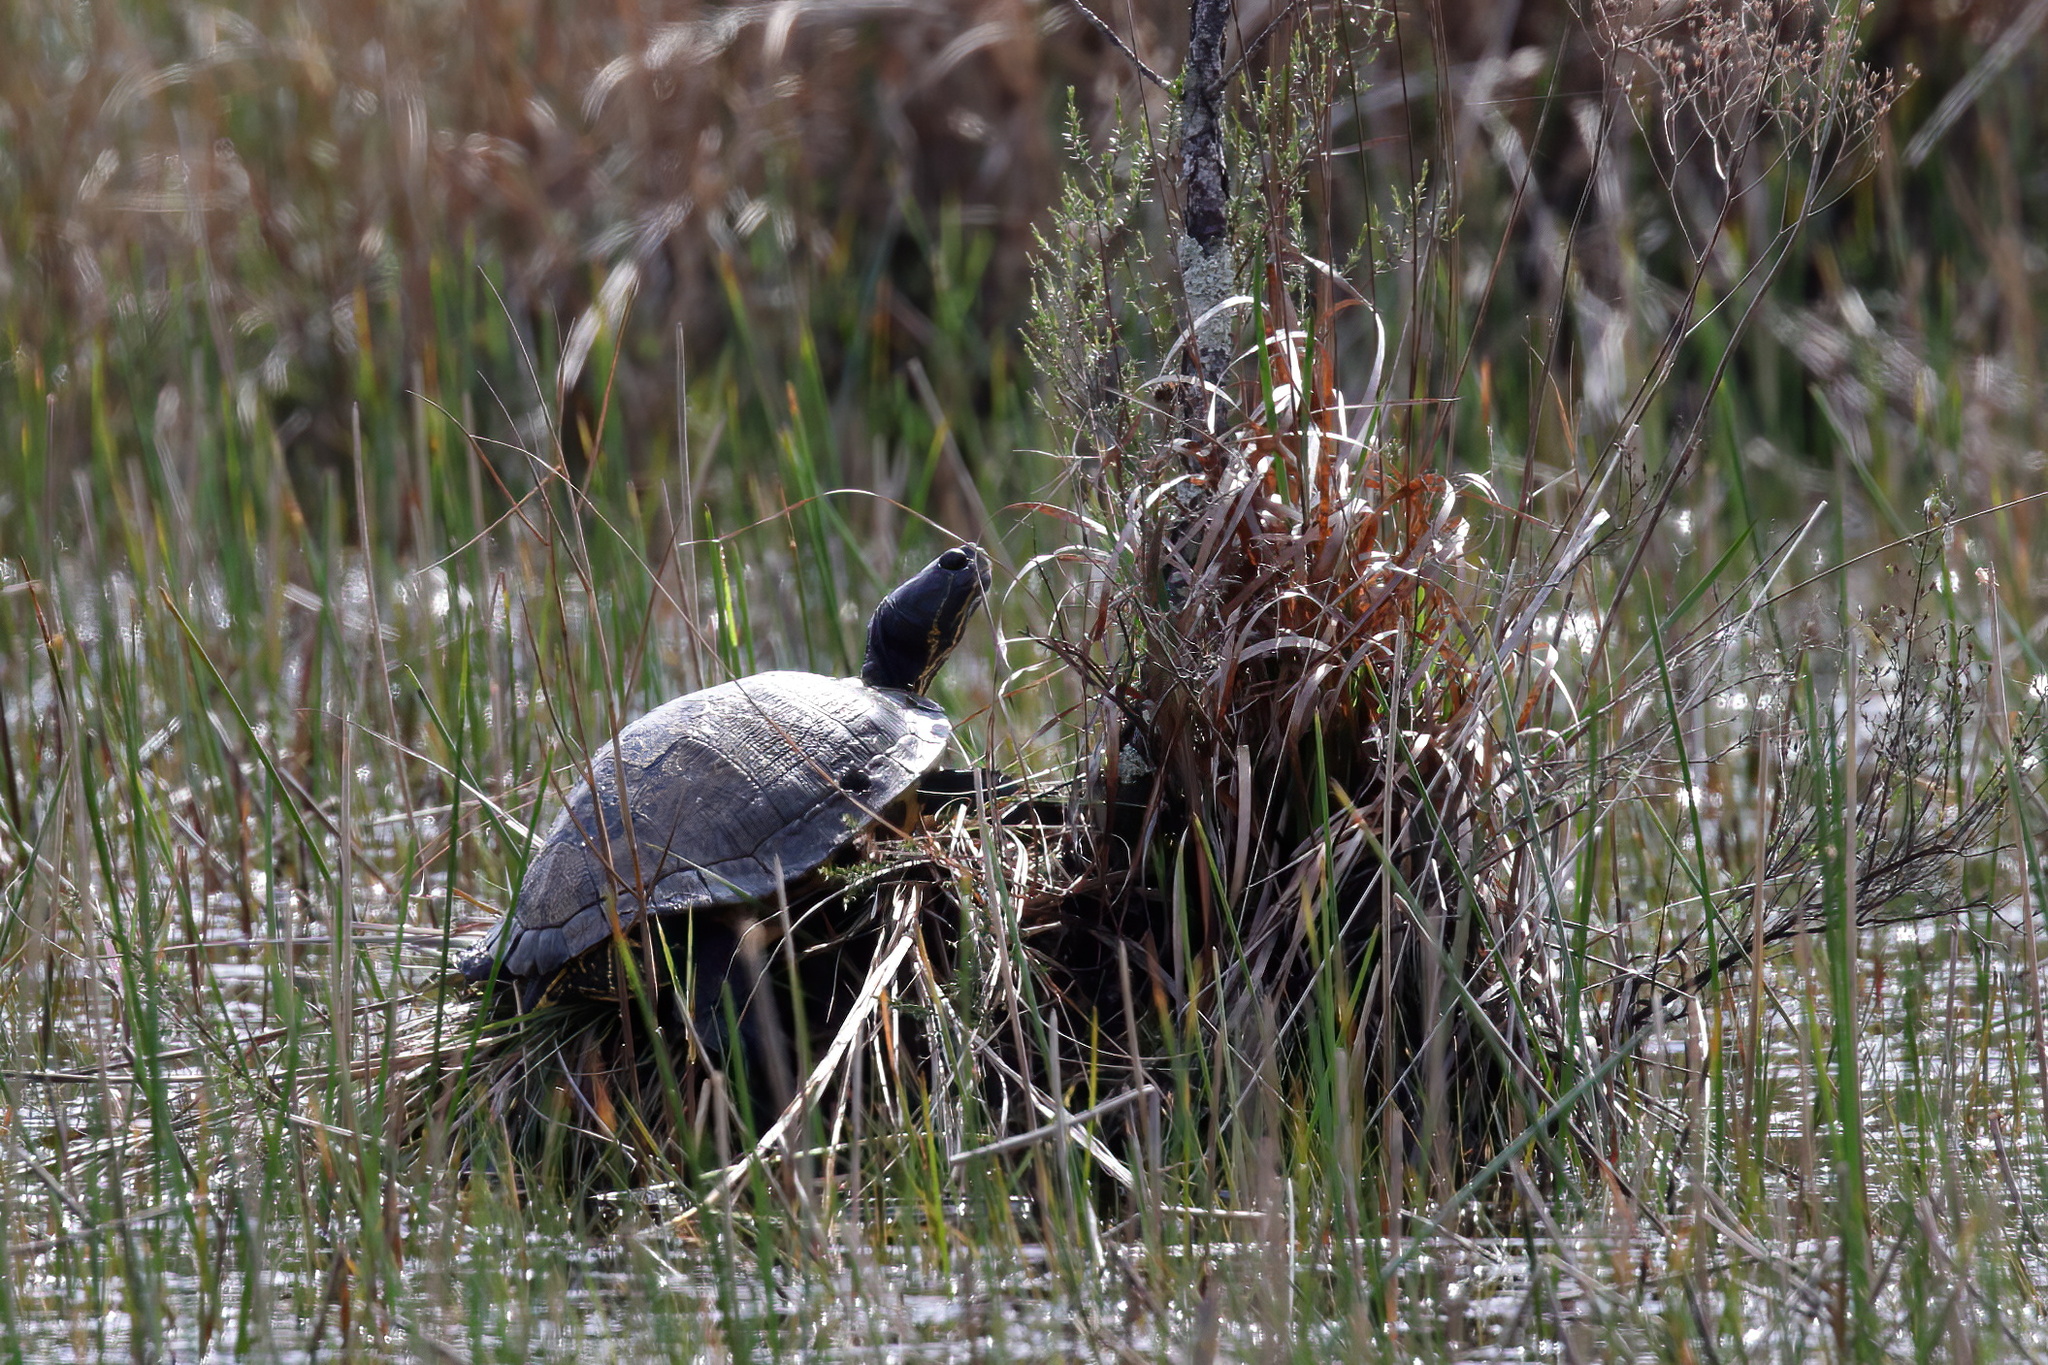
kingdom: Animalia
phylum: Chordata
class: Testudines
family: Emydidae
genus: Trachemys
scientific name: Trachemys scripta
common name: Slider
